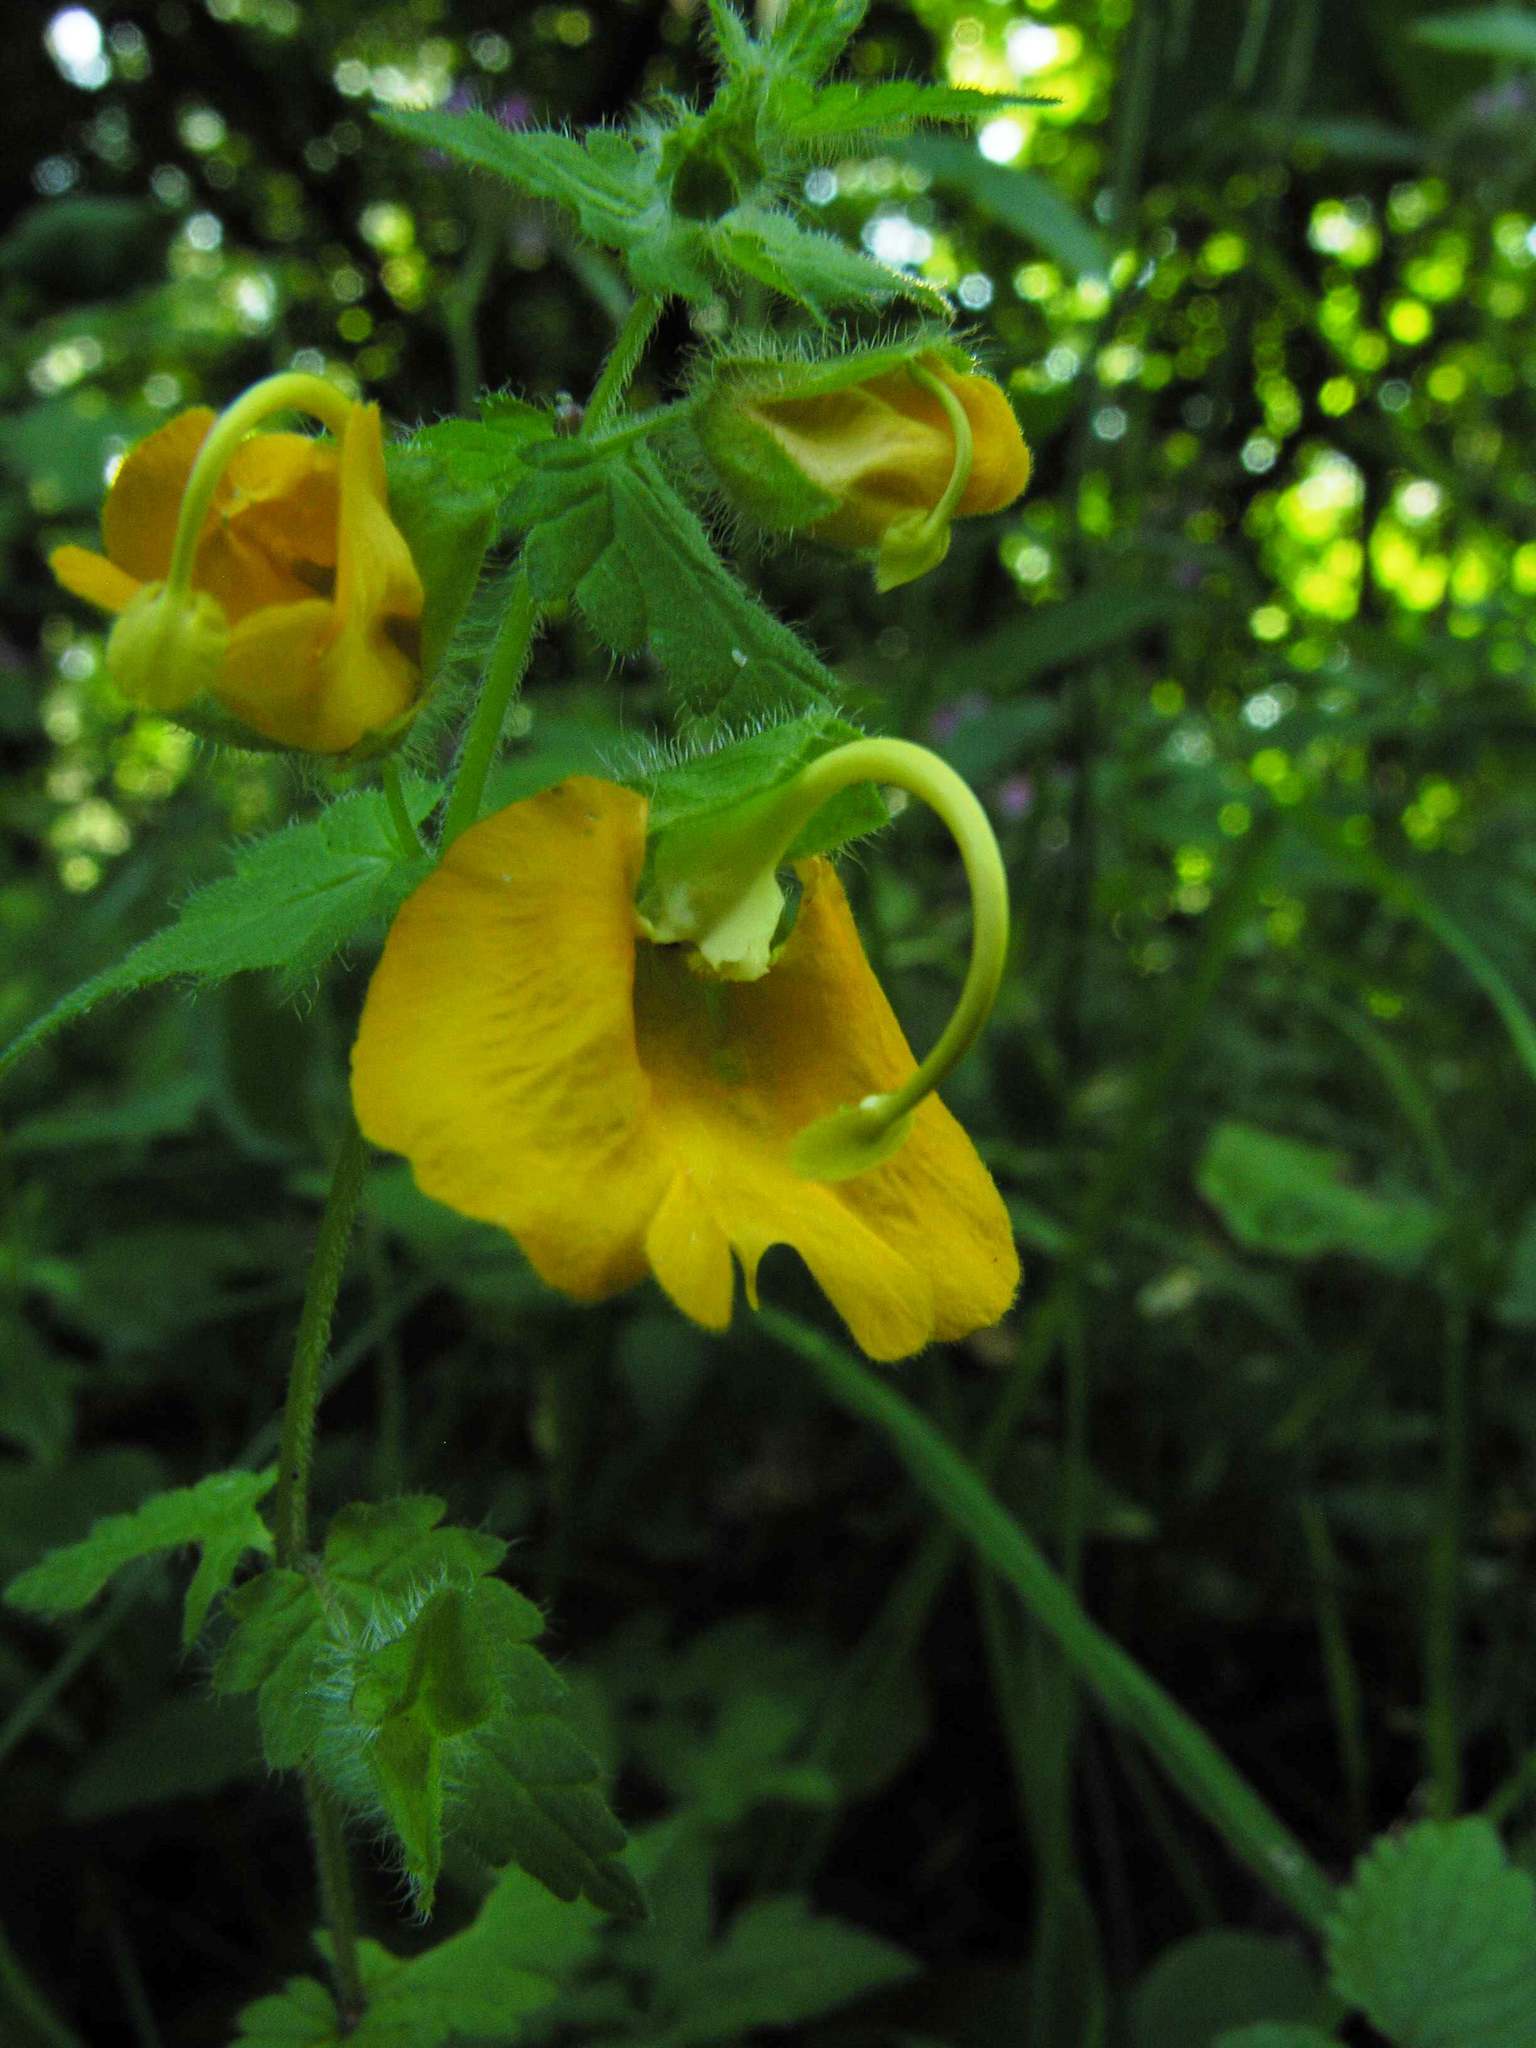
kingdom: Plantae
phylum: Tracheophyta
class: Magnoliopsida
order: Lamiales
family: Orobanchaceae
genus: Rhynchocorys
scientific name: Rhynchocorys orientalis
